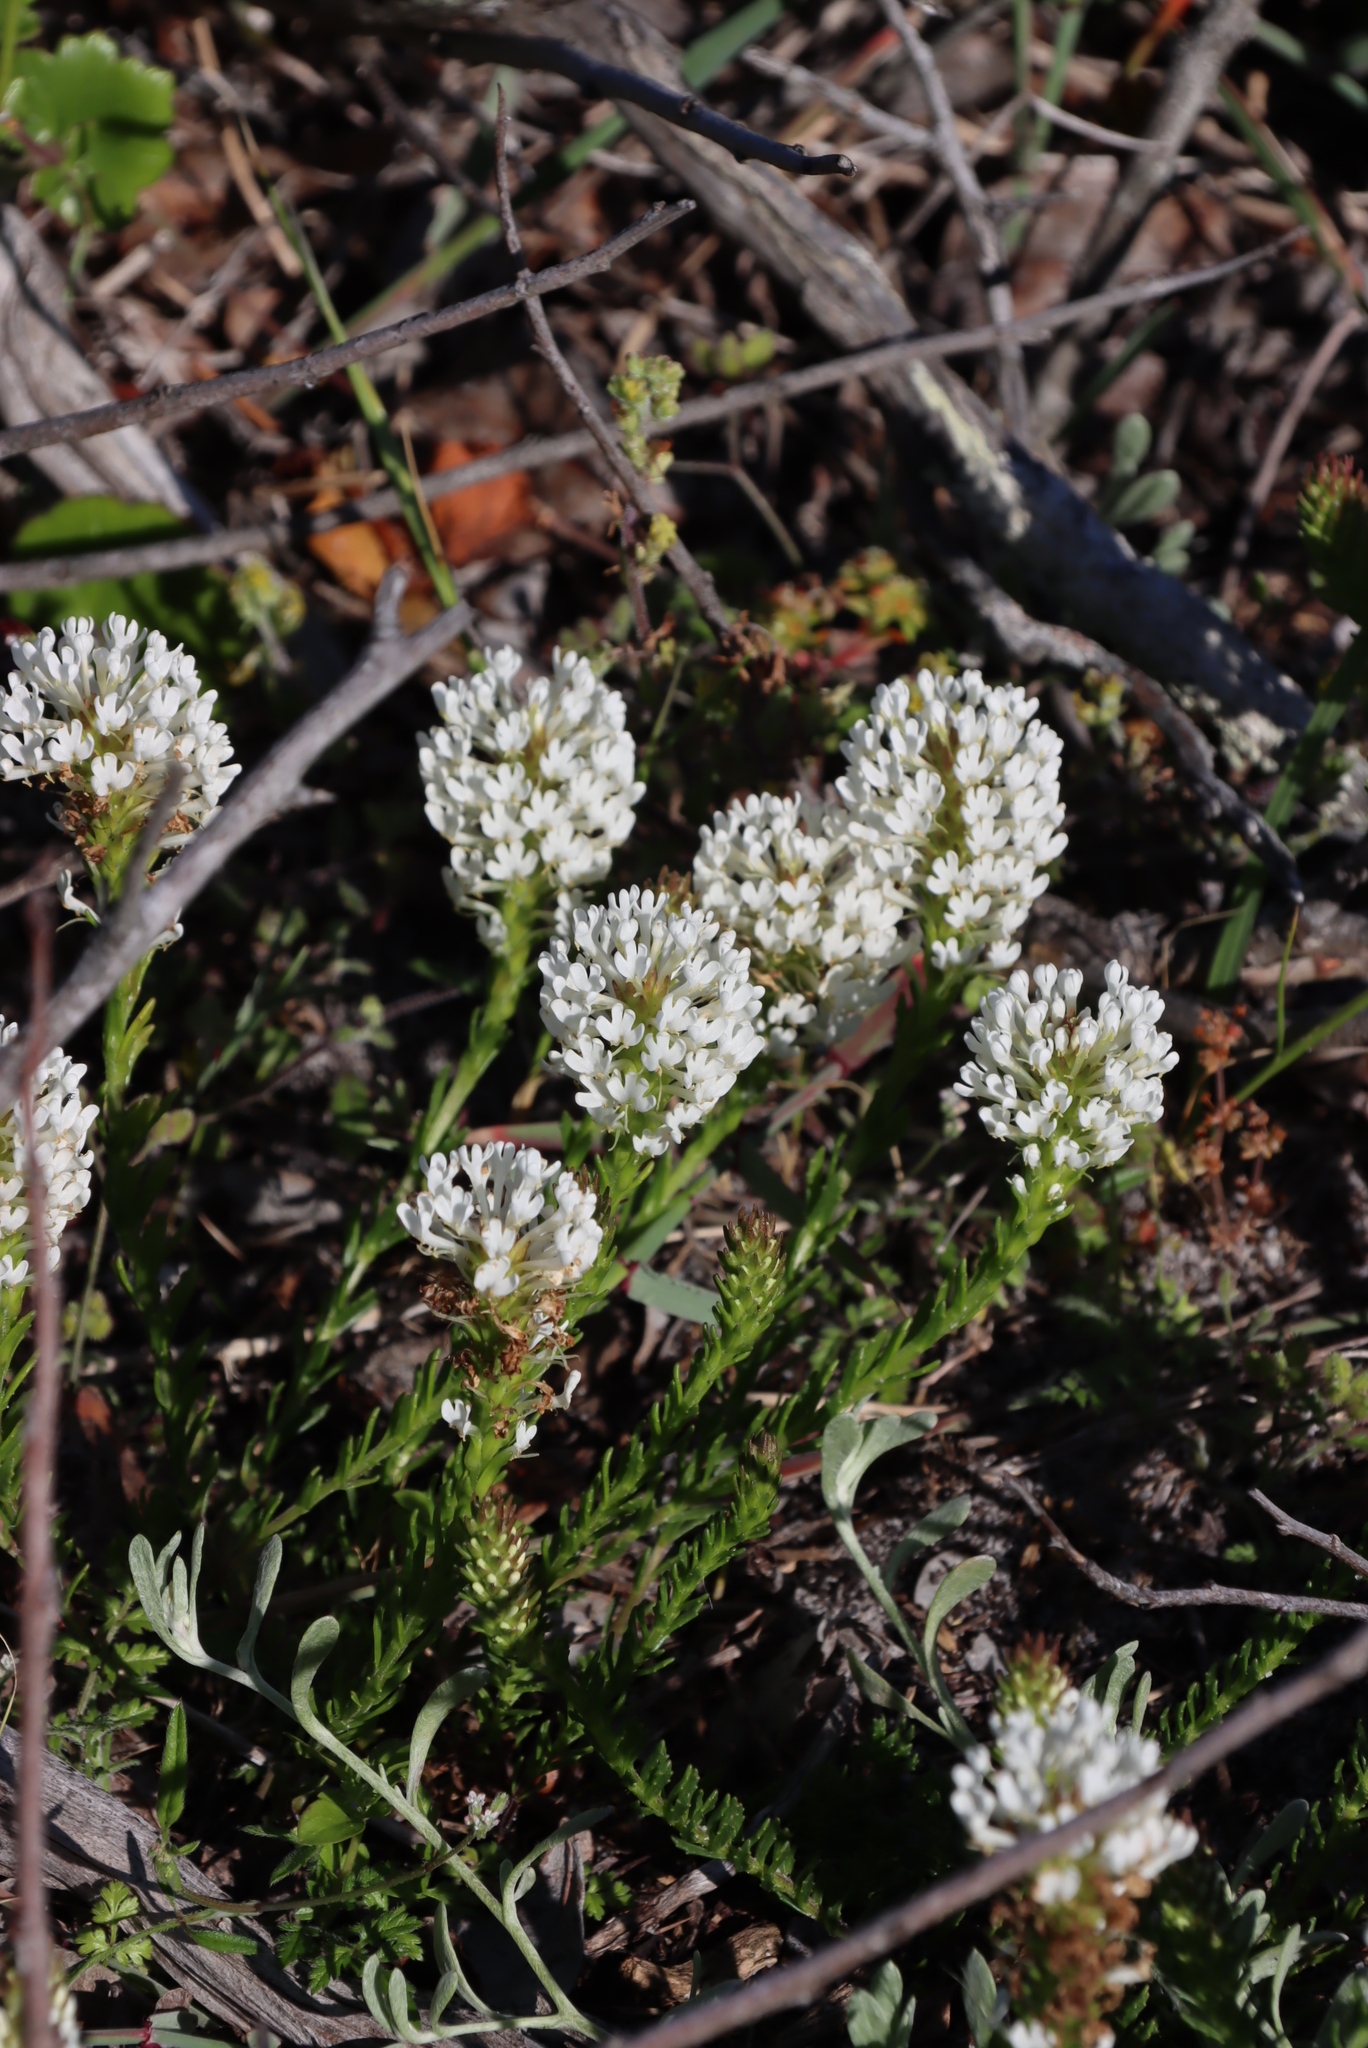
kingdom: Plantae
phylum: Tracheophyta
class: Magnoliopsida
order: Lamiales
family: Scrophulariaceae
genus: Dischisma
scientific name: Dischisma ciliatum
